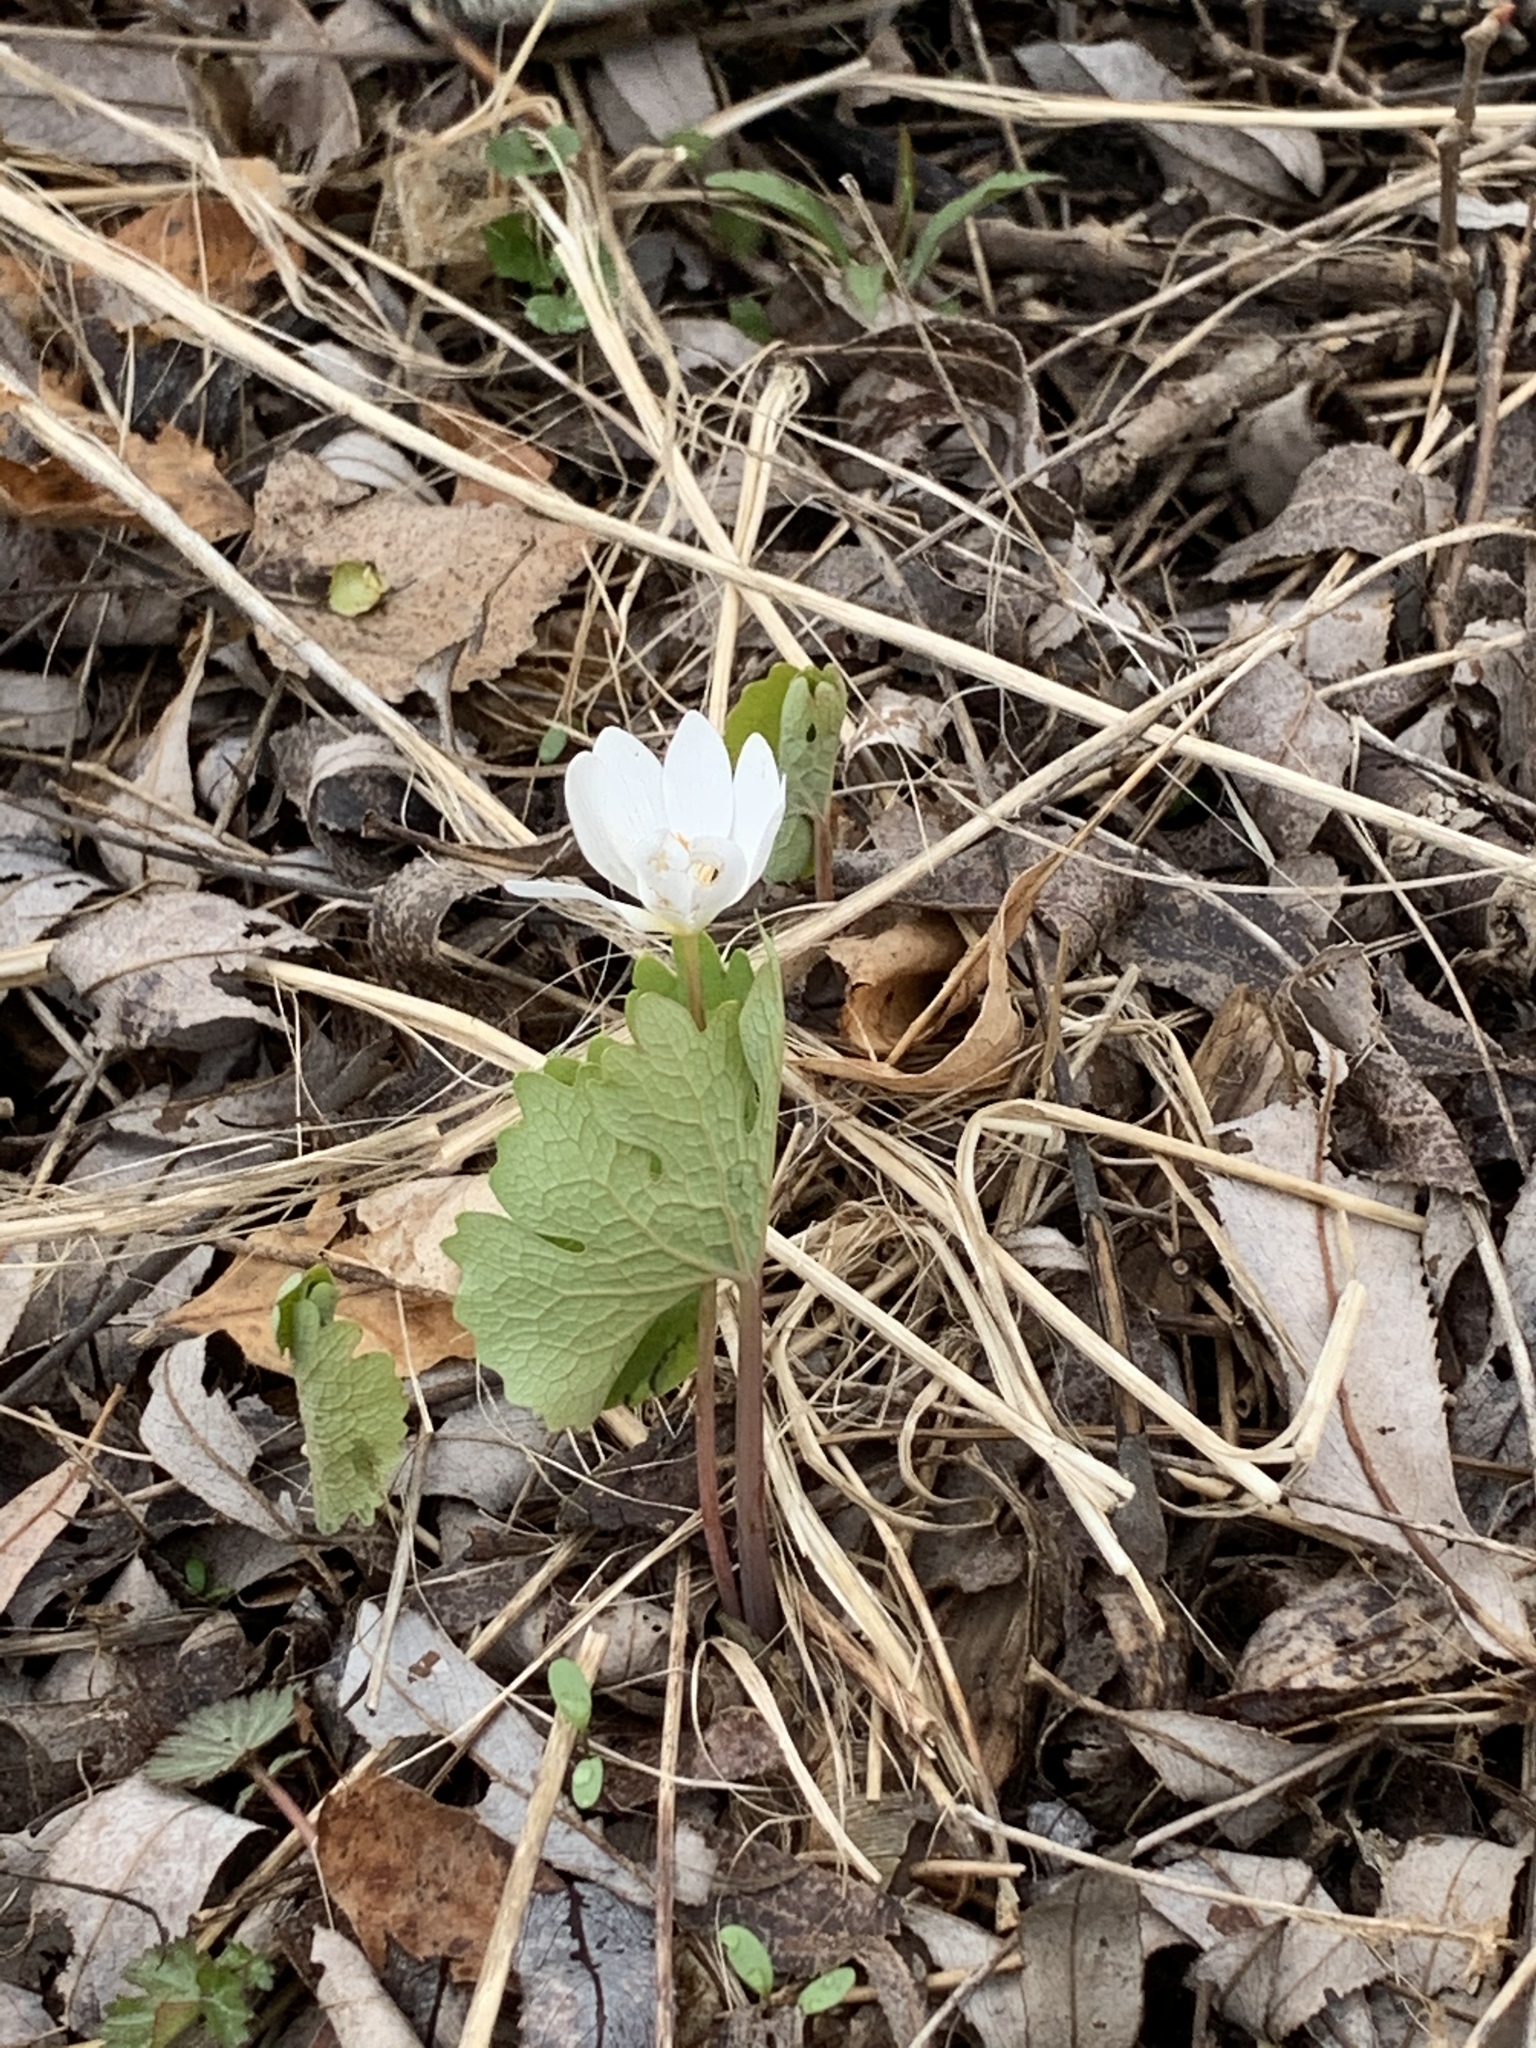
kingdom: Plantae
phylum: Tracheophyta
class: Magnoliopsida
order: Ranunculales
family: Papaveraceae
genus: Sanguinaria
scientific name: Sanguinaria canadensis
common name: Bloodroot
